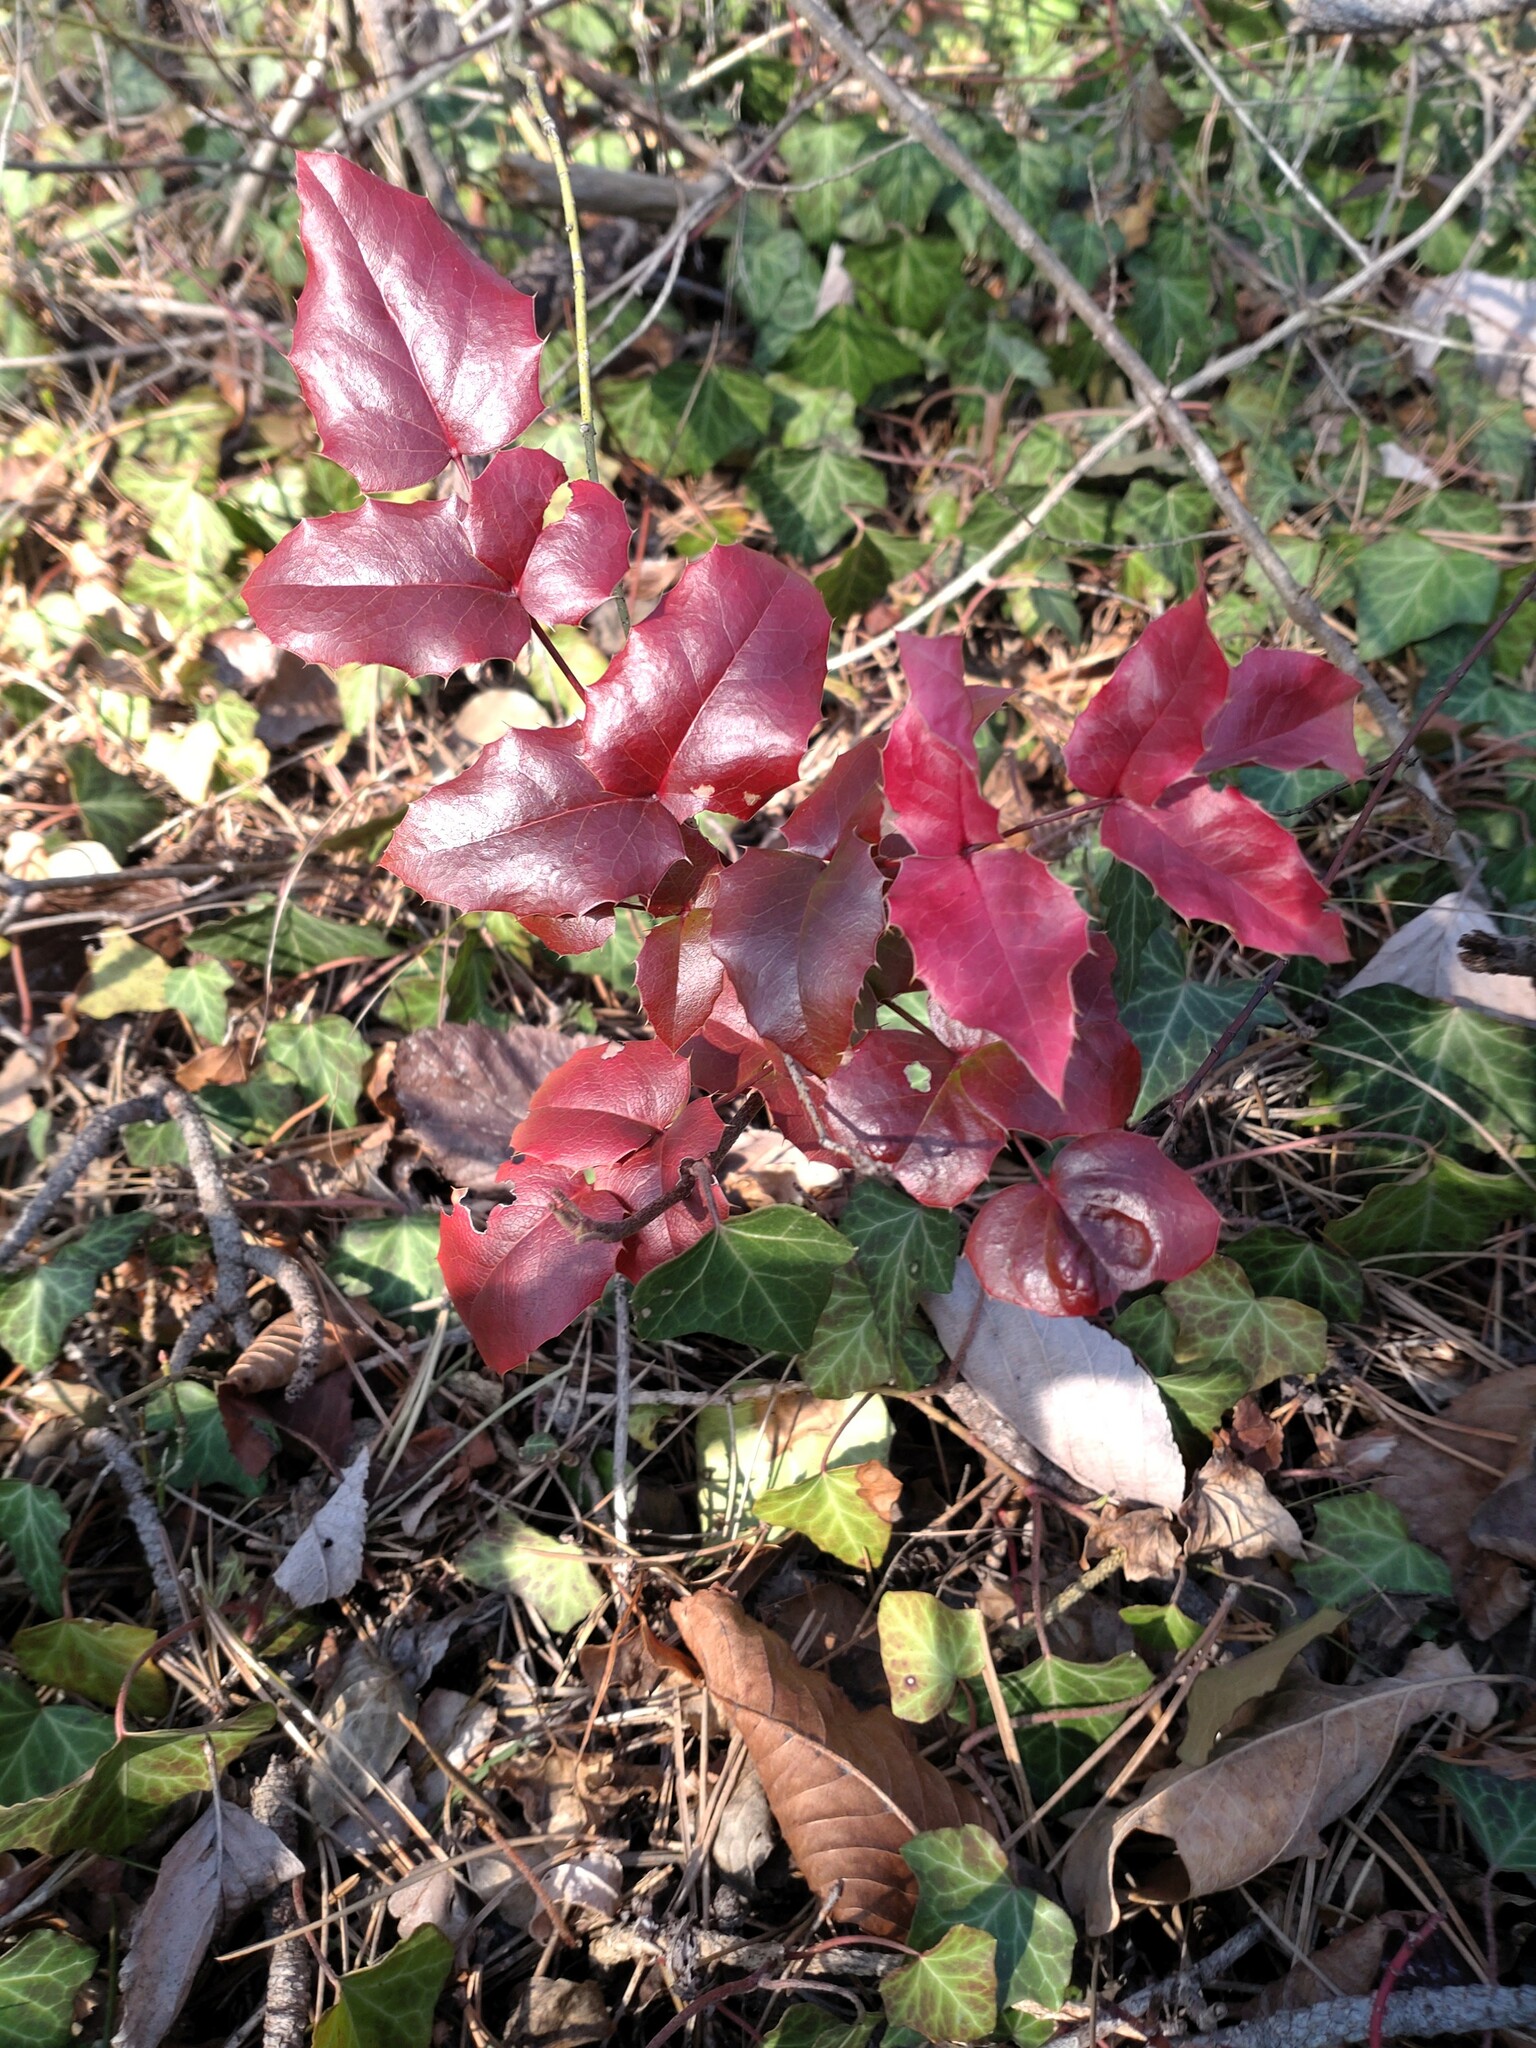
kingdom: Plantae
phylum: Tracheophyta
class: Magnoliopsida
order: Ranunculales
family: Berberidaceae
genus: Mahonia
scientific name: Mahonia aquifolium
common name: Oregon-grape
